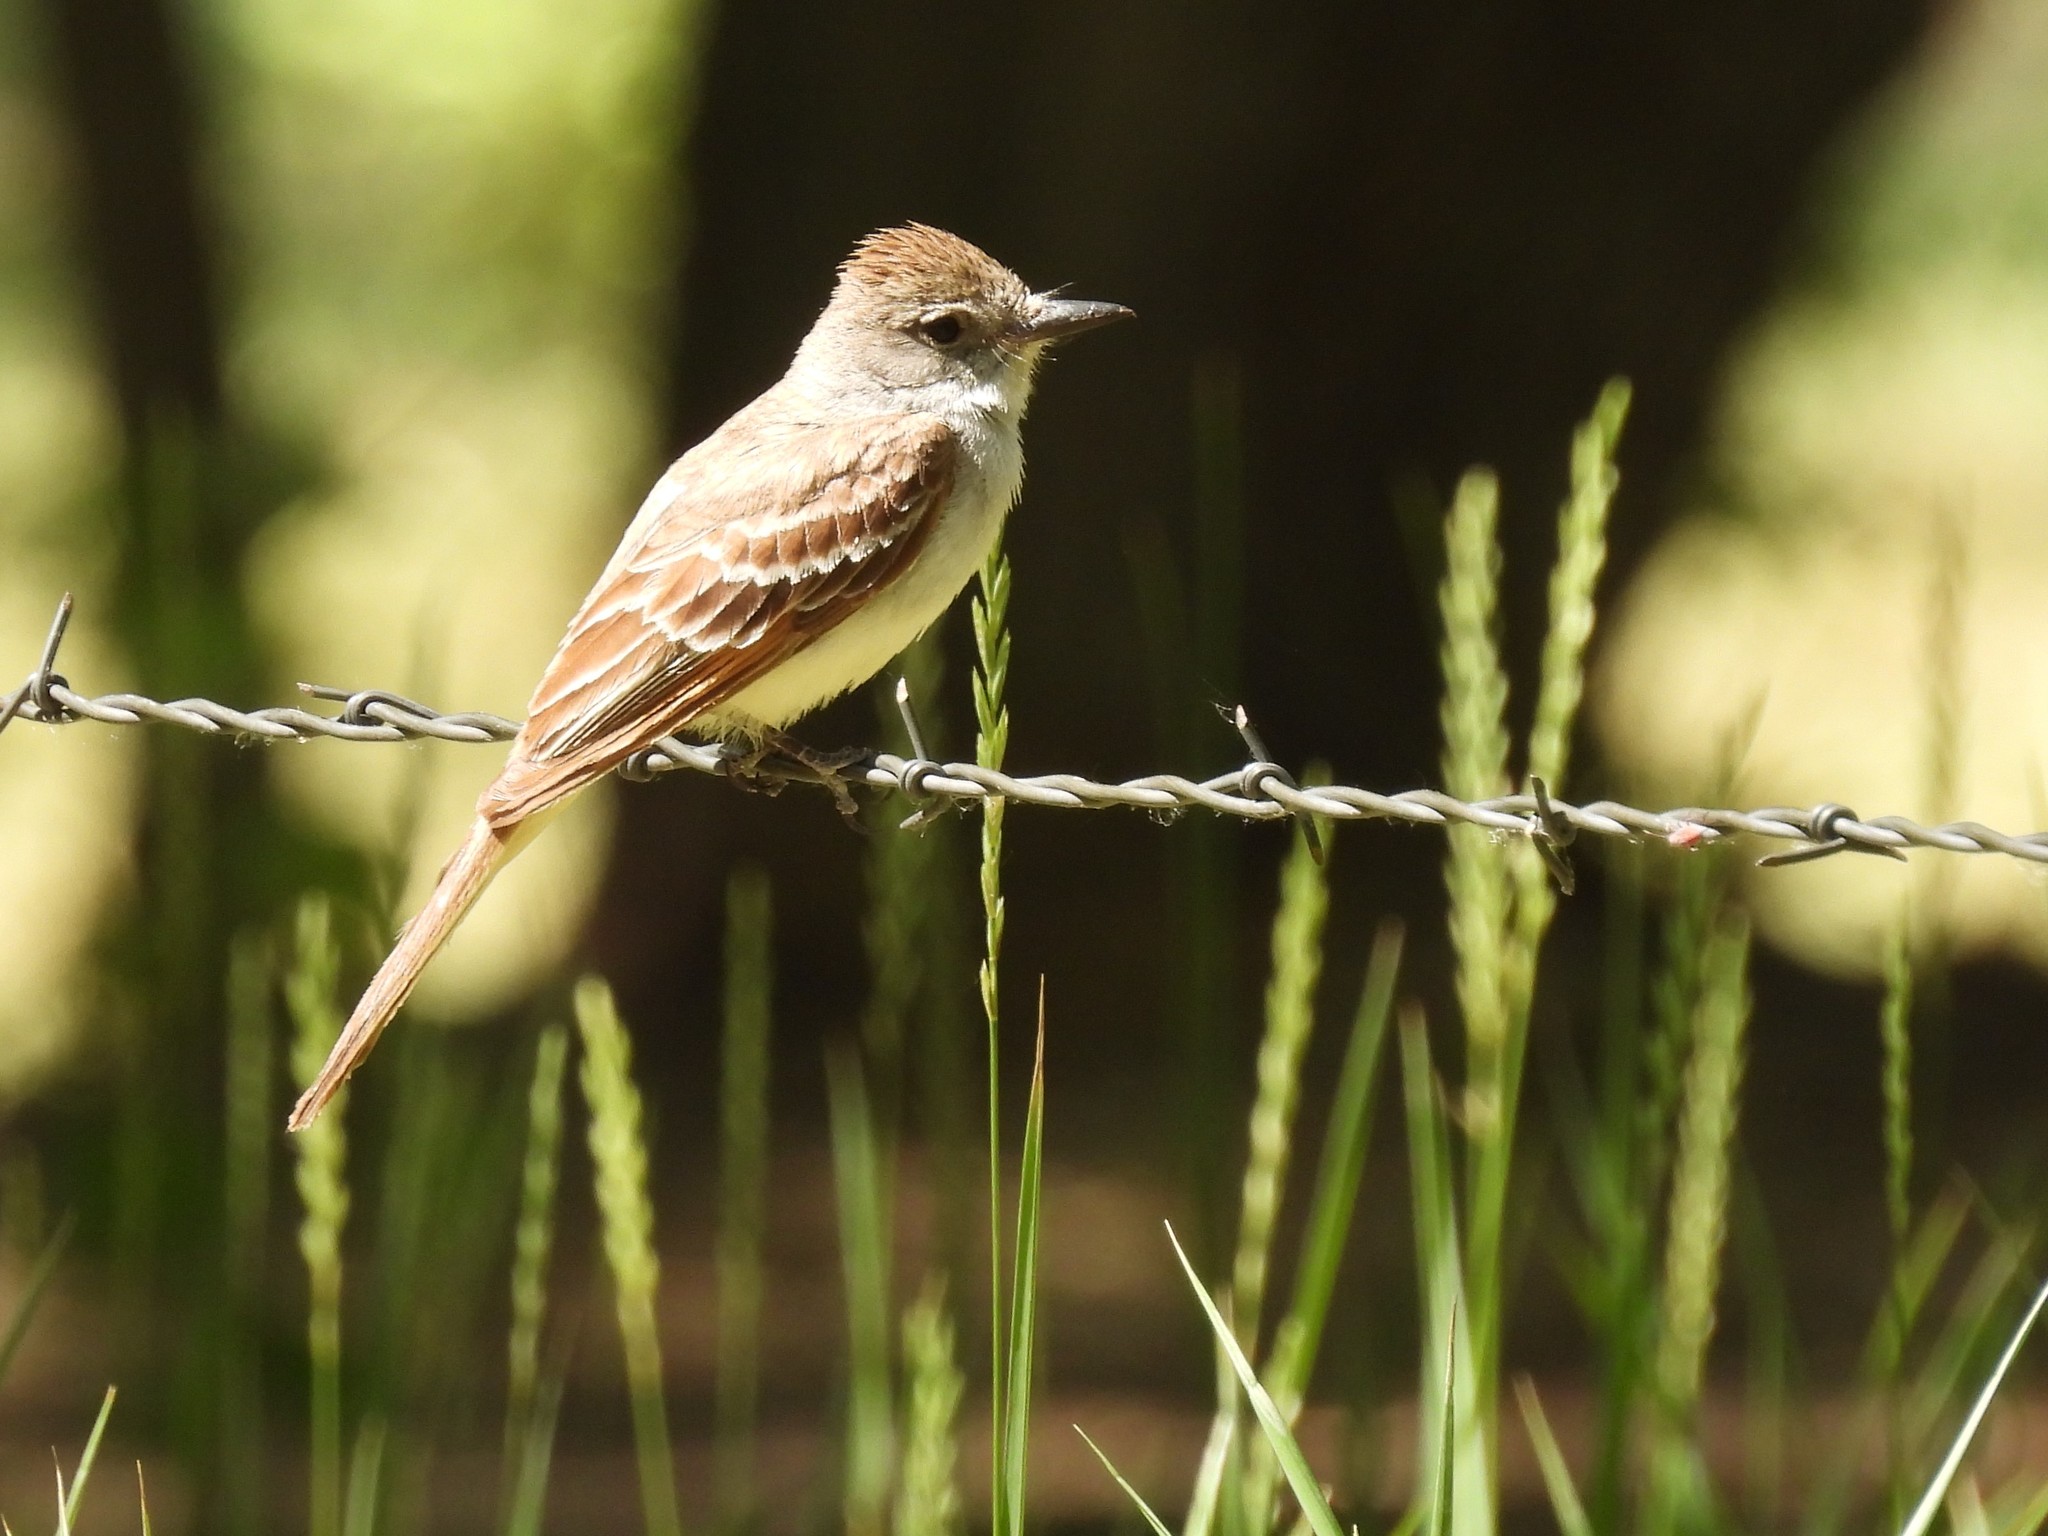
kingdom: Animalia
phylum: Chordata
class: Aves
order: Passeriformes
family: Tyrannidae
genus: Myiarchus
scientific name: Myiarchus cinerascens
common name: Ash-throated flycatcher
